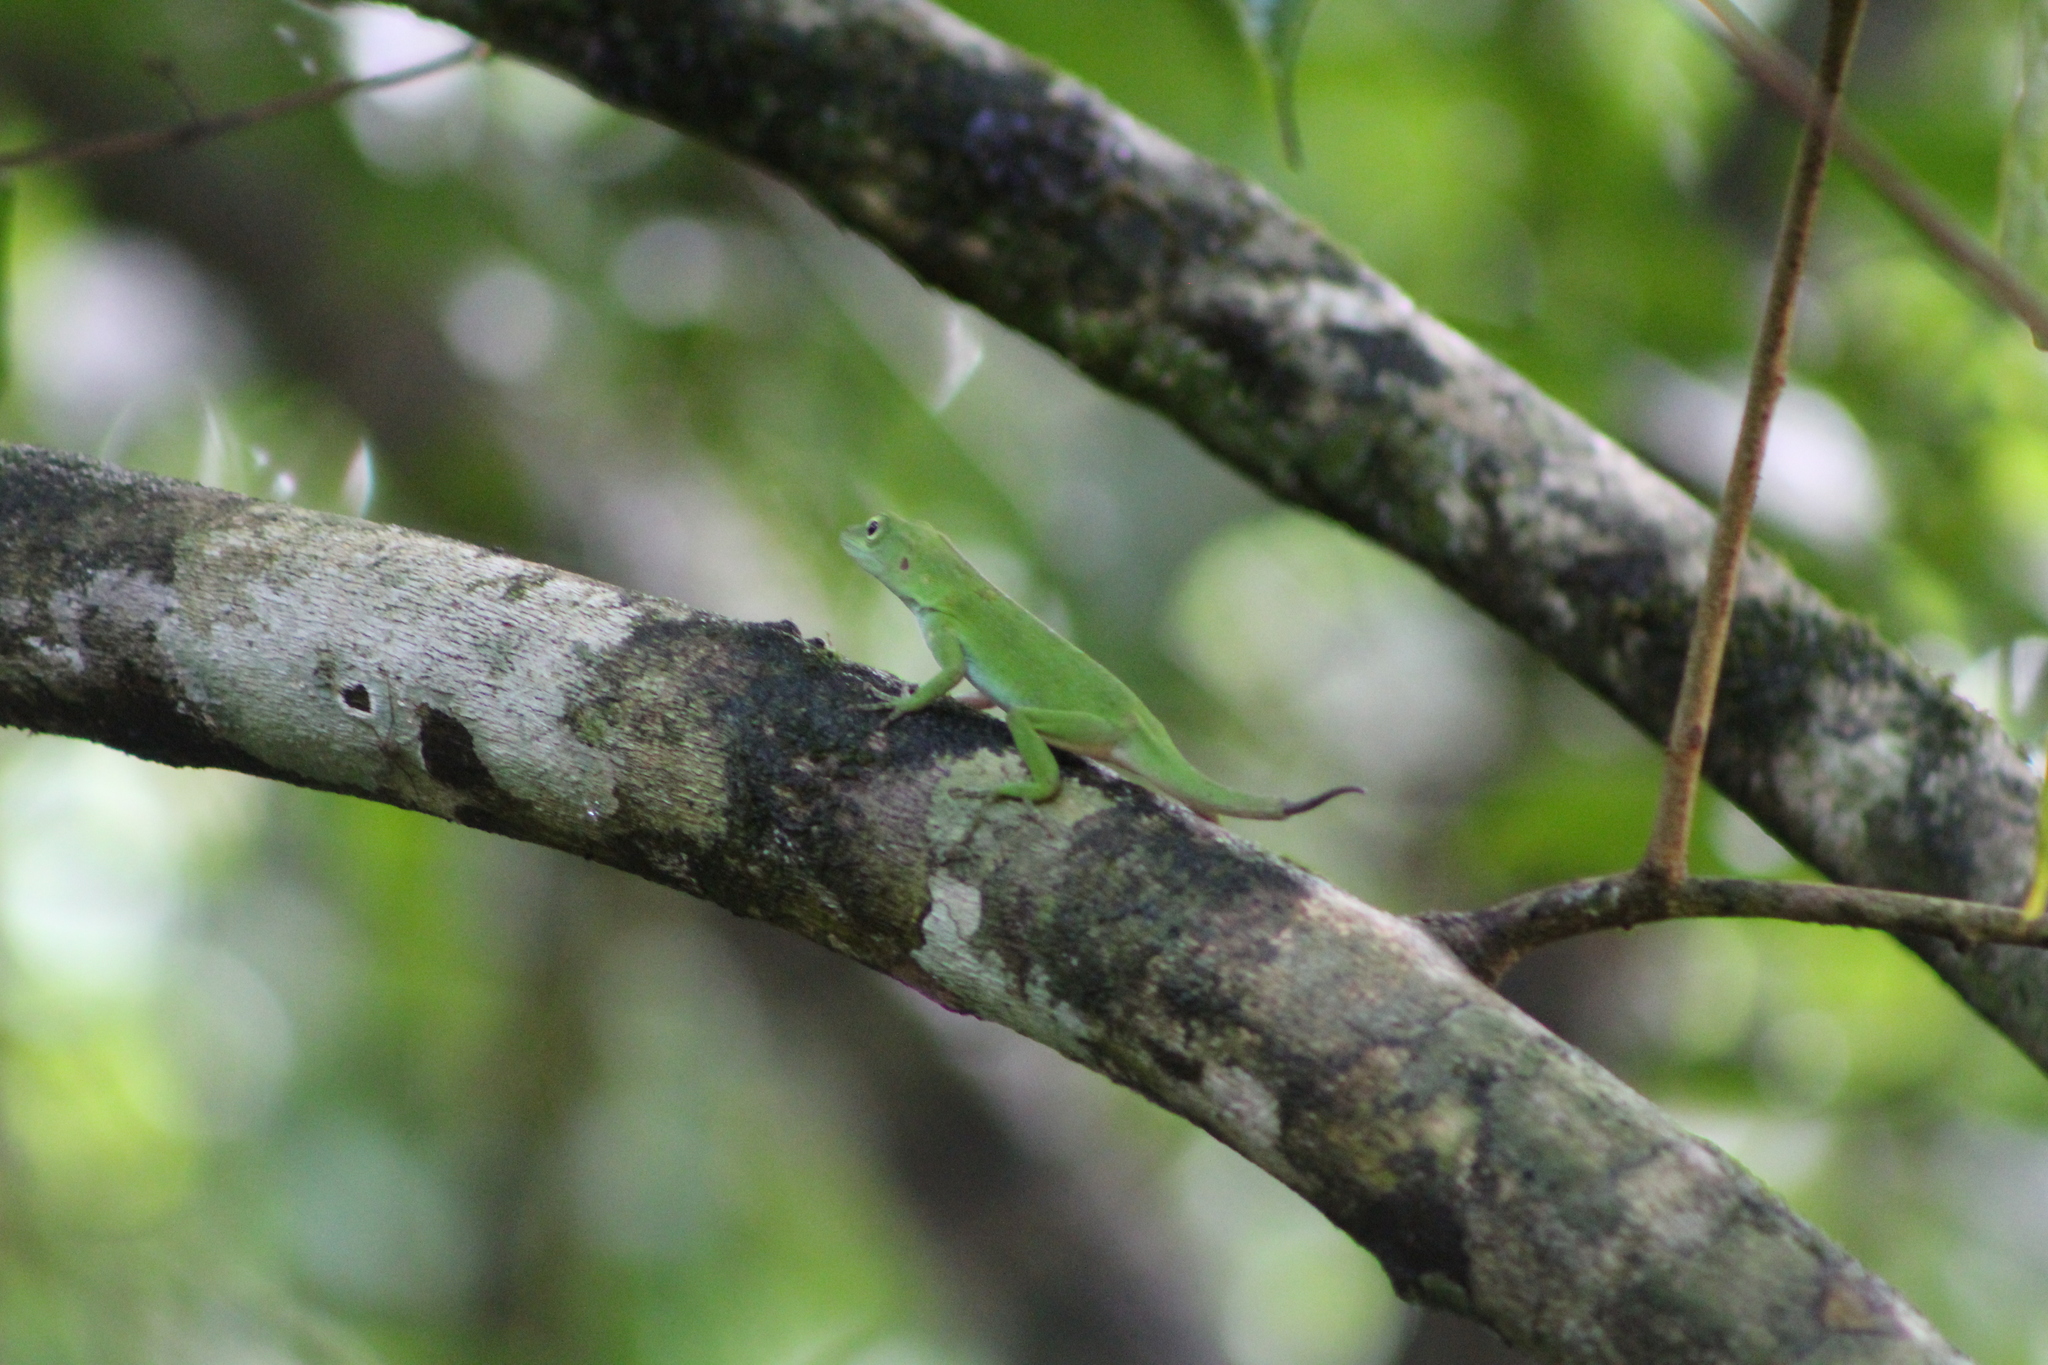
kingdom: Animalia
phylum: Chordata
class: Squamata
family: Dactyloidae
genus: Anolis
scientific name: Anolis biporcatus
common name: Giant green anole
